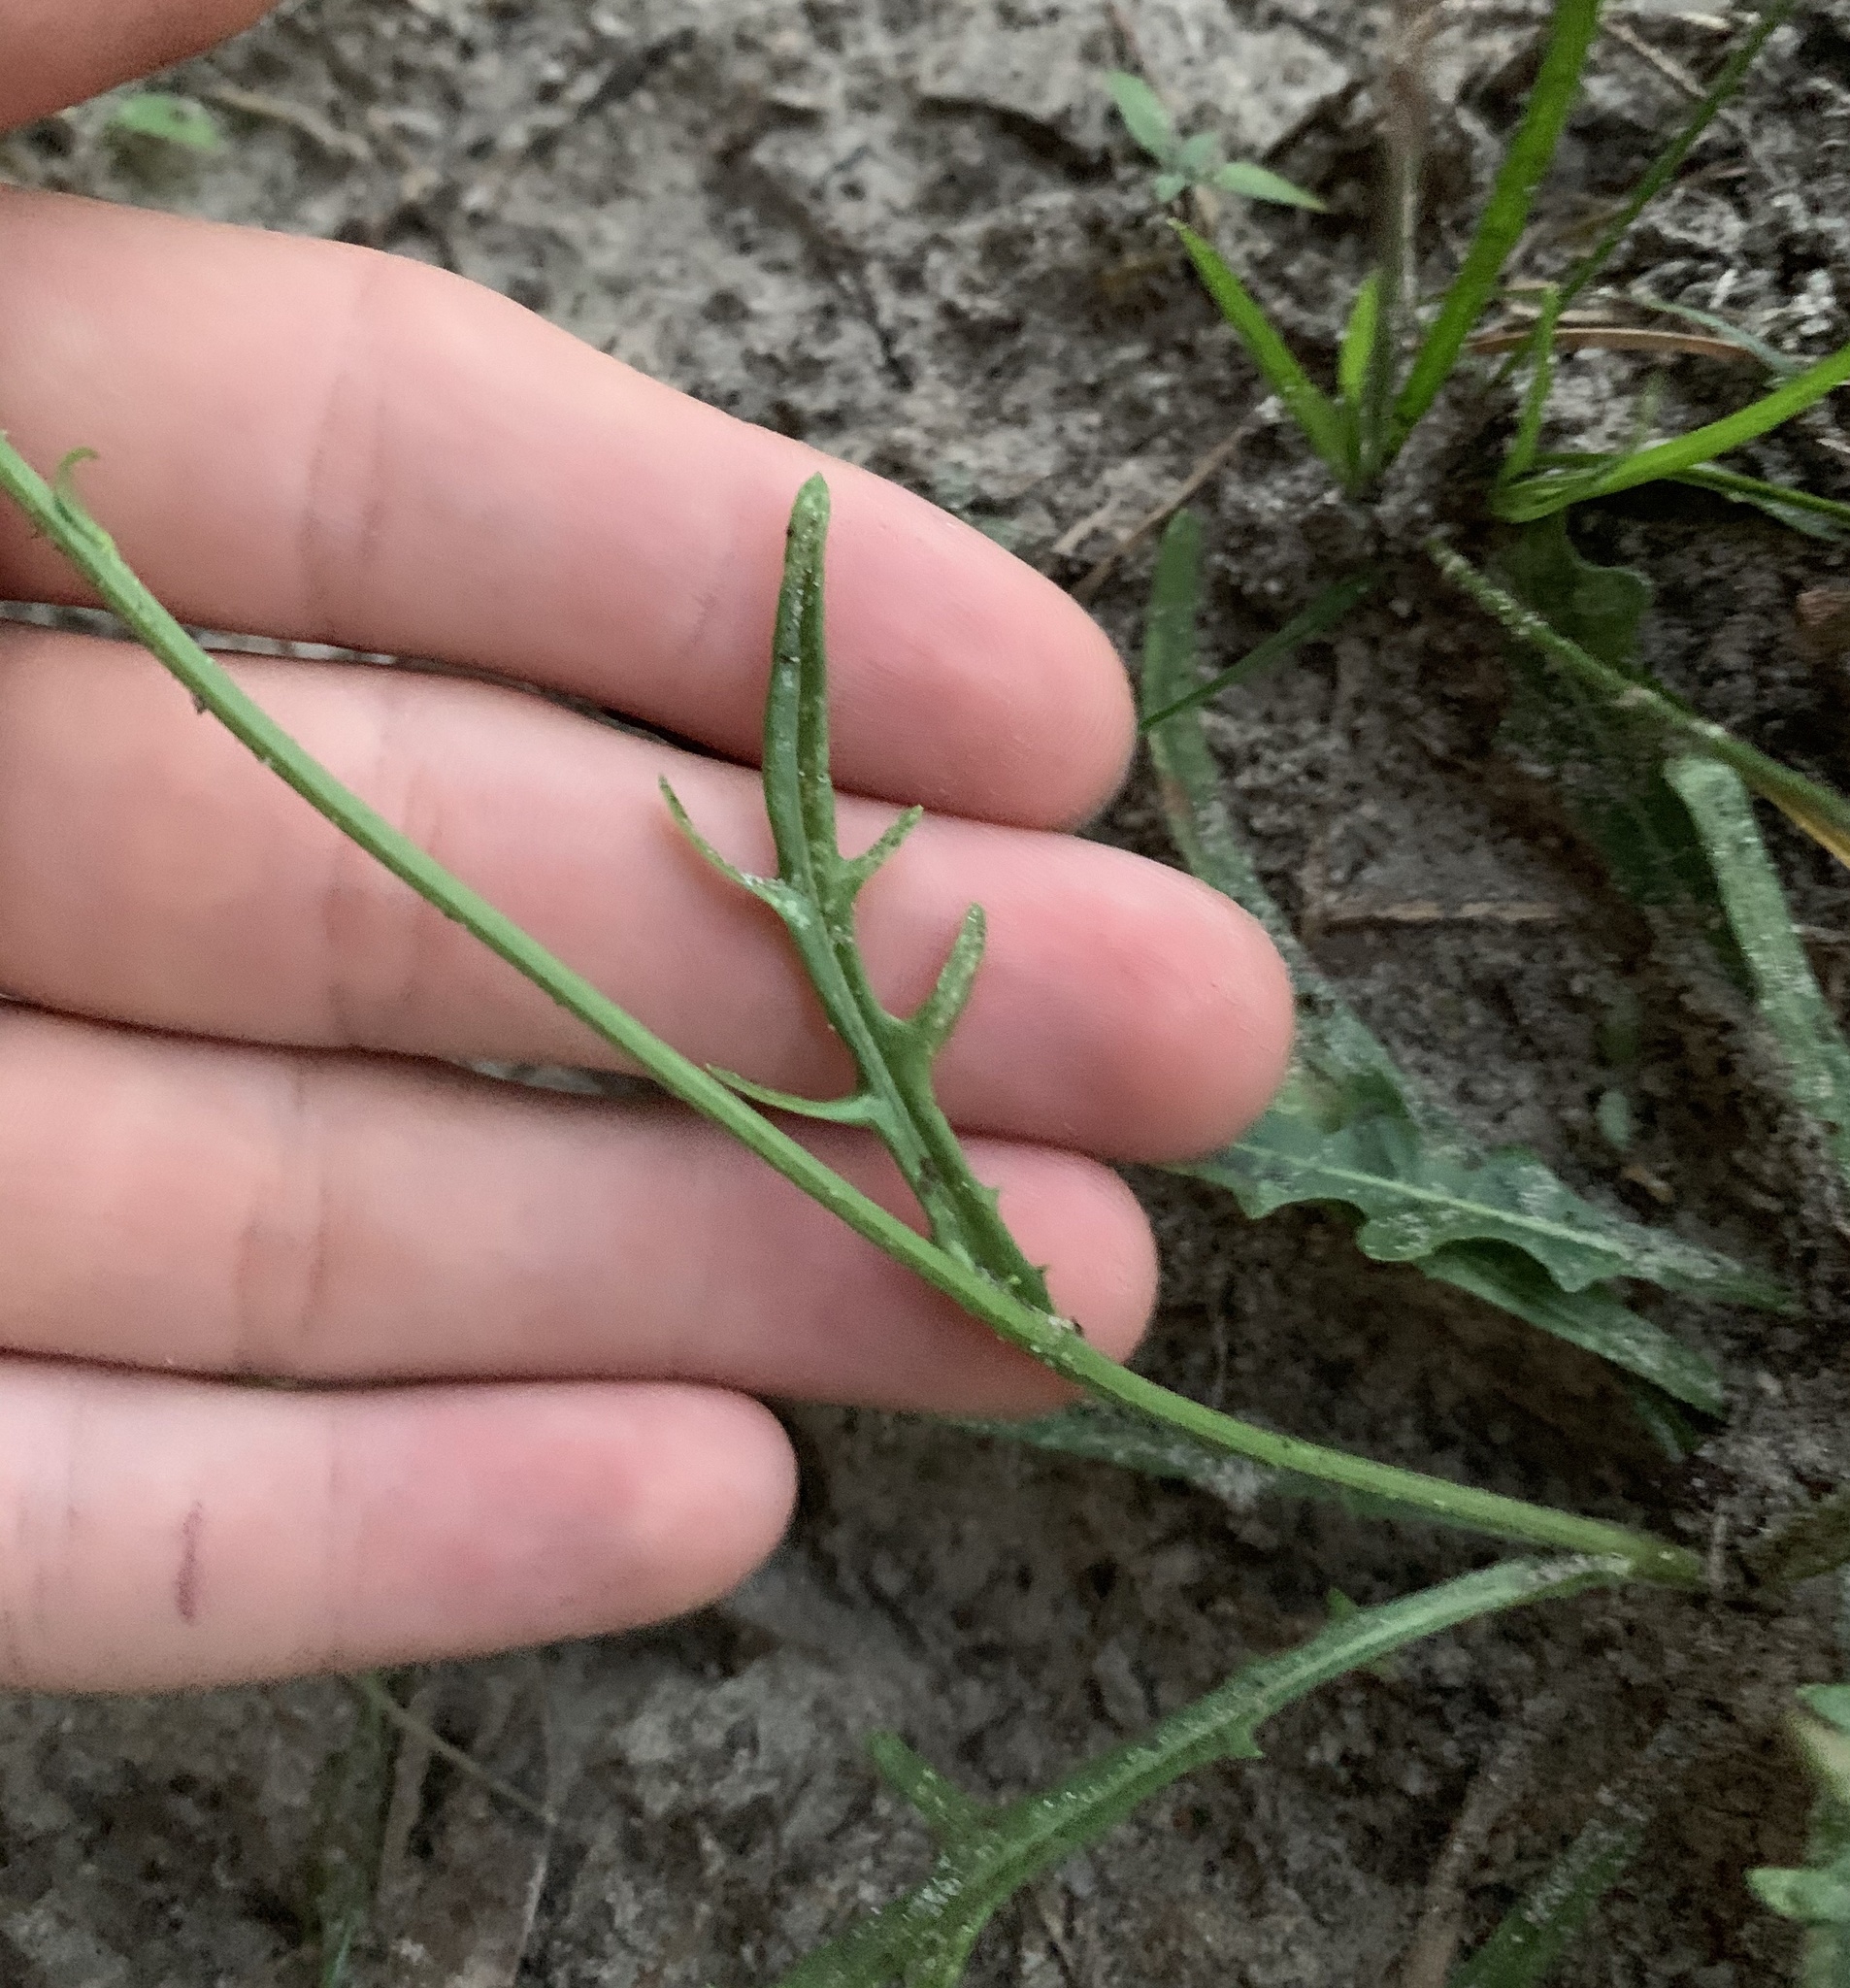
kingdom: Plantae
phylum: Tracheophyta
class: Magnoliopsida
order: Asterales
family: Asteraceae
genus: Pyrrhopappus
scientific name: Pyrrhopappus carolinianus
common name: Carolina desert-chicory
